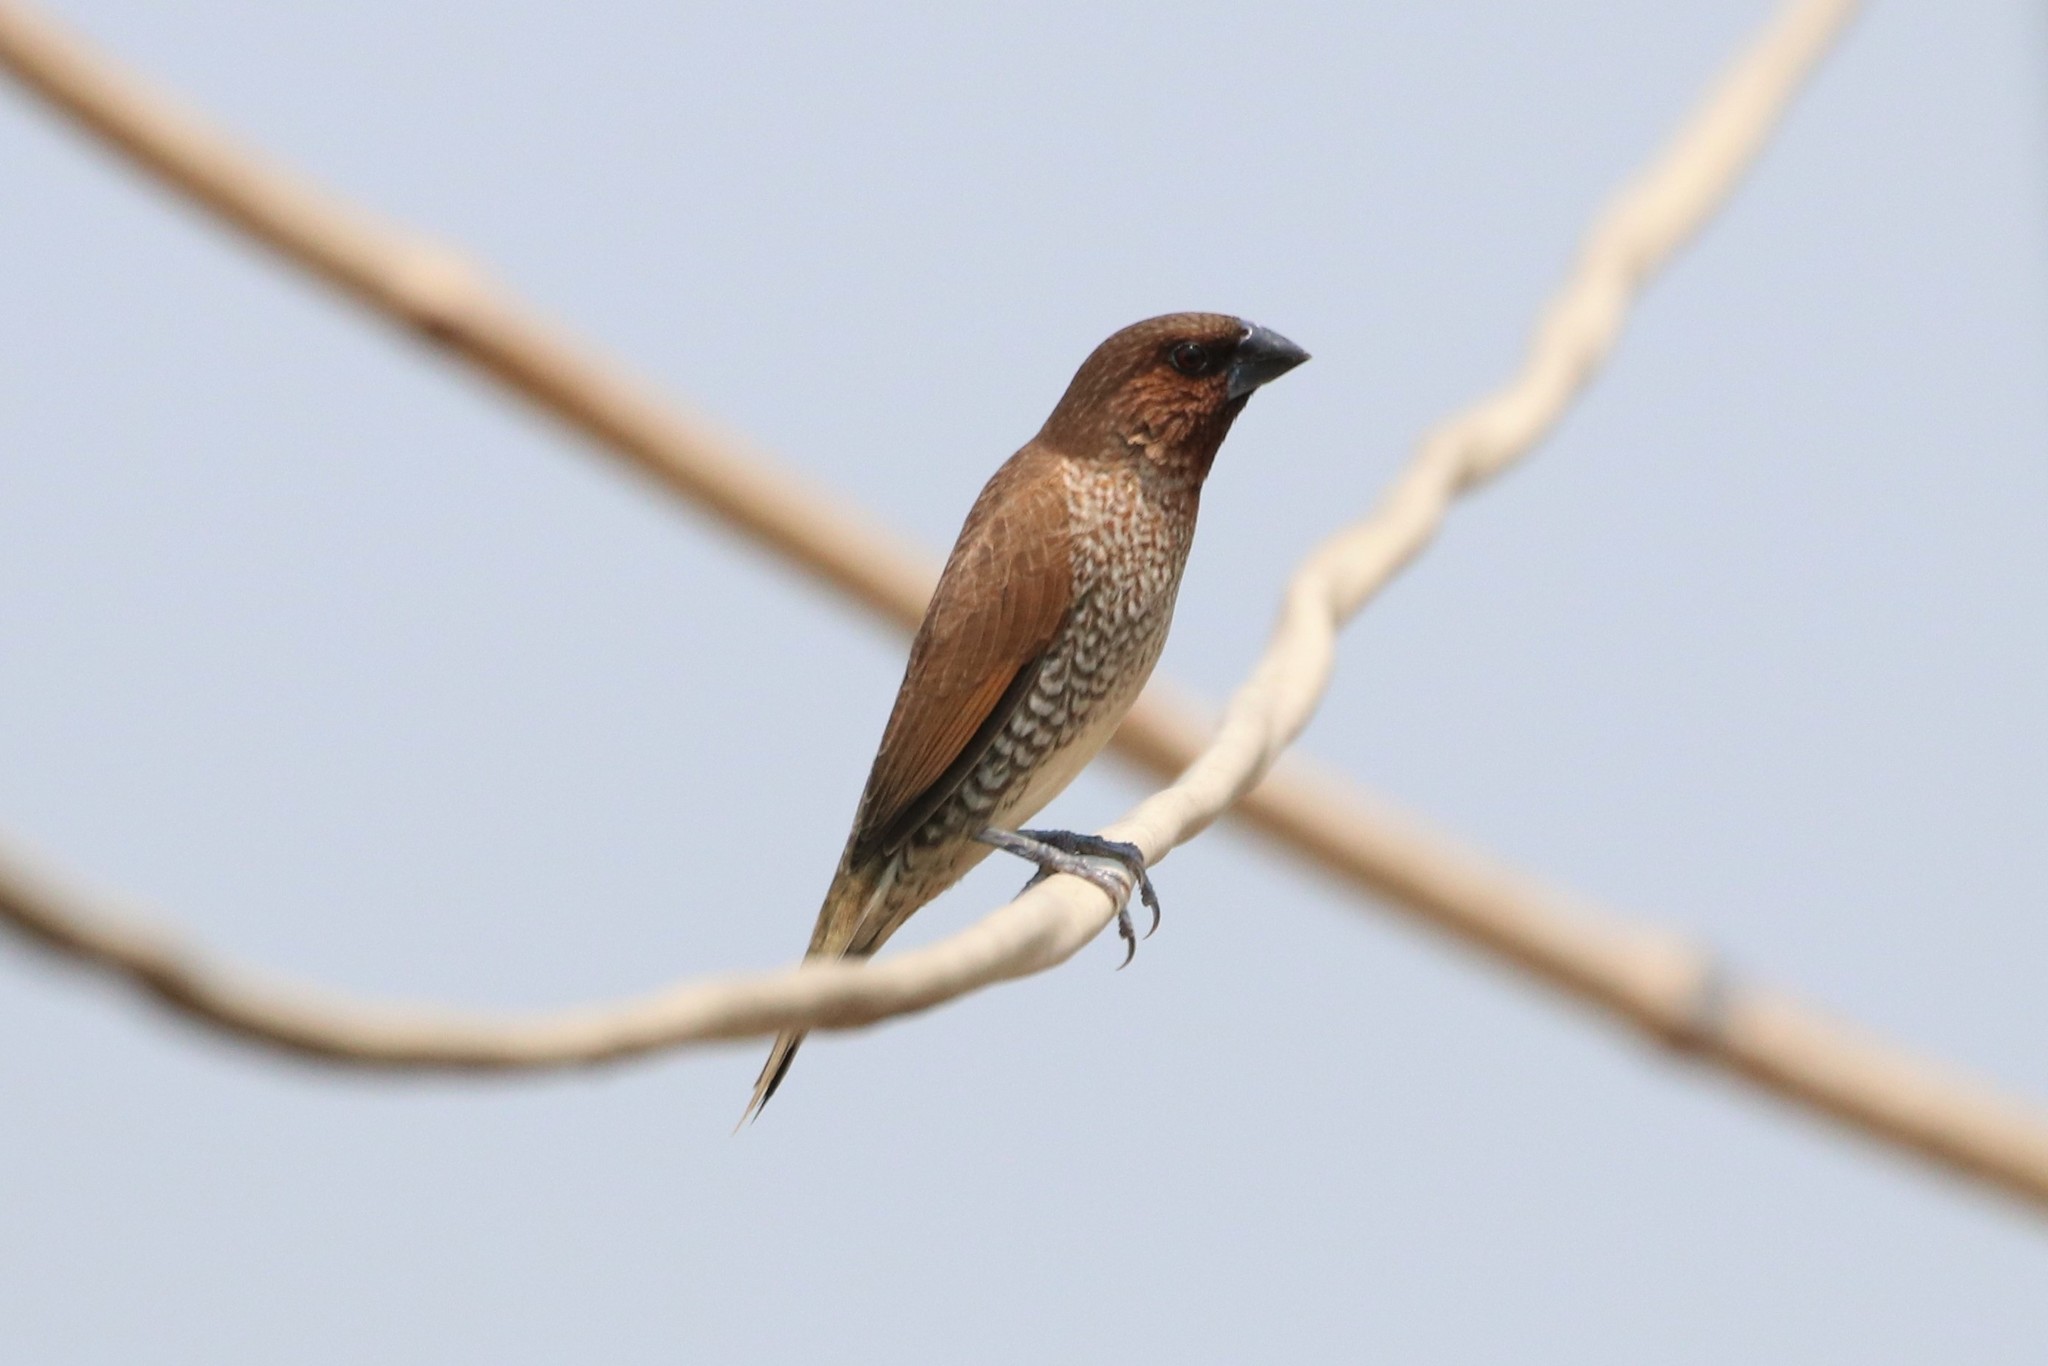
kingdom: Animalia
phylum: Chordata
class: Aves
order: Passeriformes
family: Estrildidae
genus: Lonchura
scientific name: Lonchura punctulata
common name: Scaly-breasted munia
